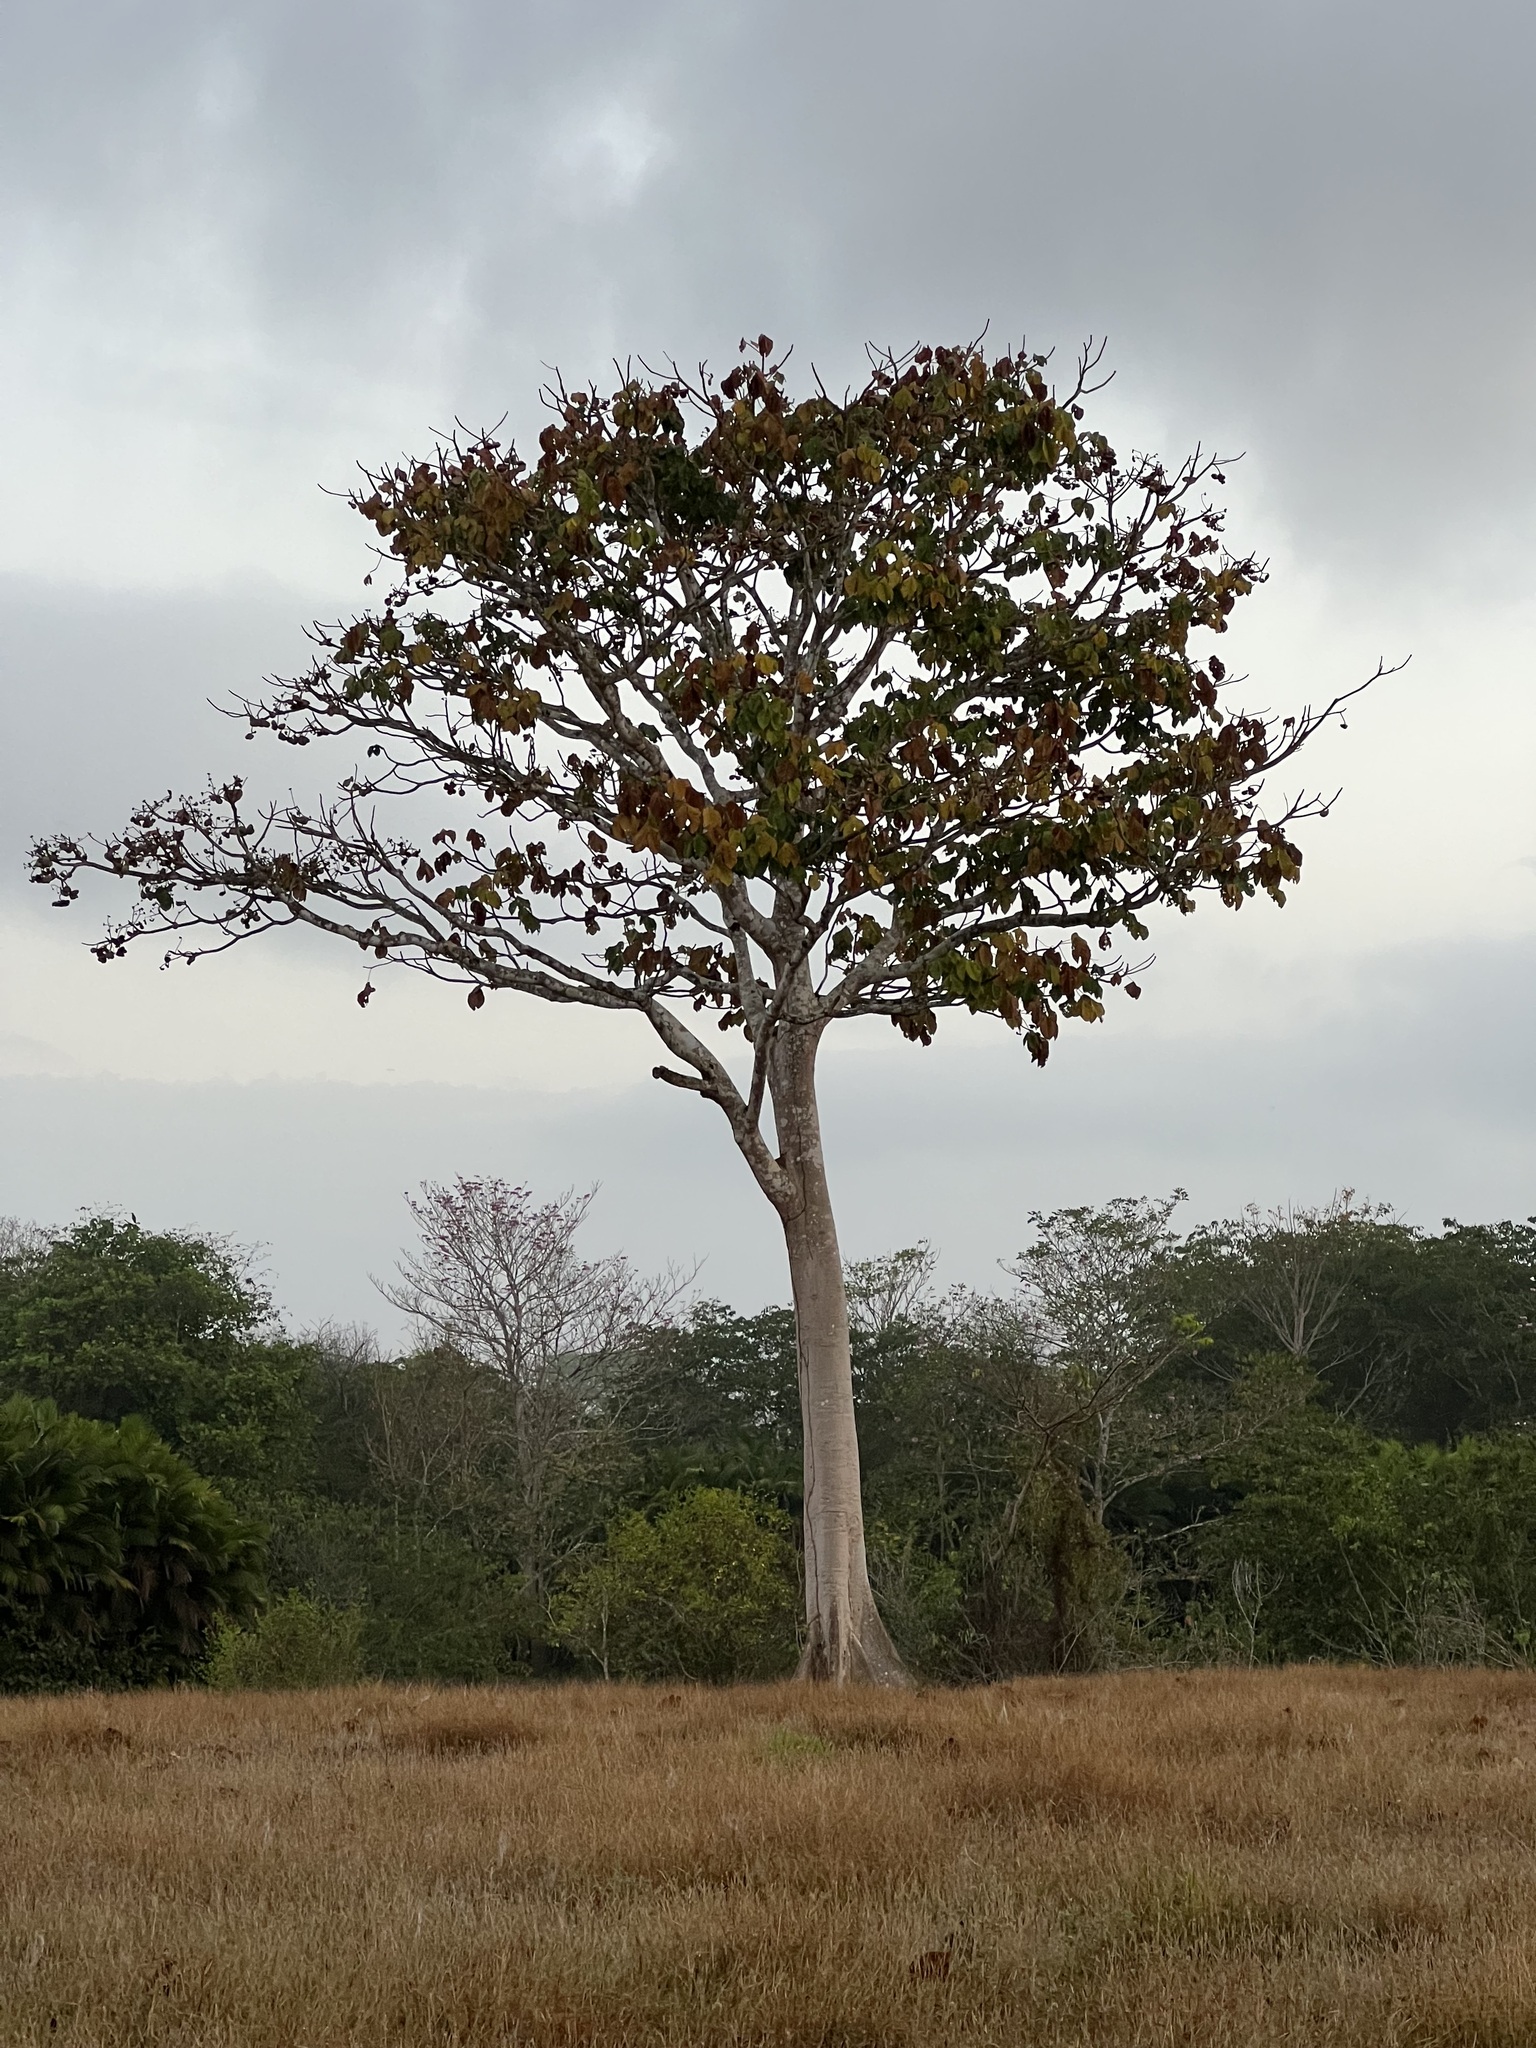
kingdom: Plantae
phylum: Tracheophyta
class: Magnoliopsida
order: Malvales
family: Malvaceae
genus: Sterculia
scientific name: Sterculia apetala
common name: Panama tree
